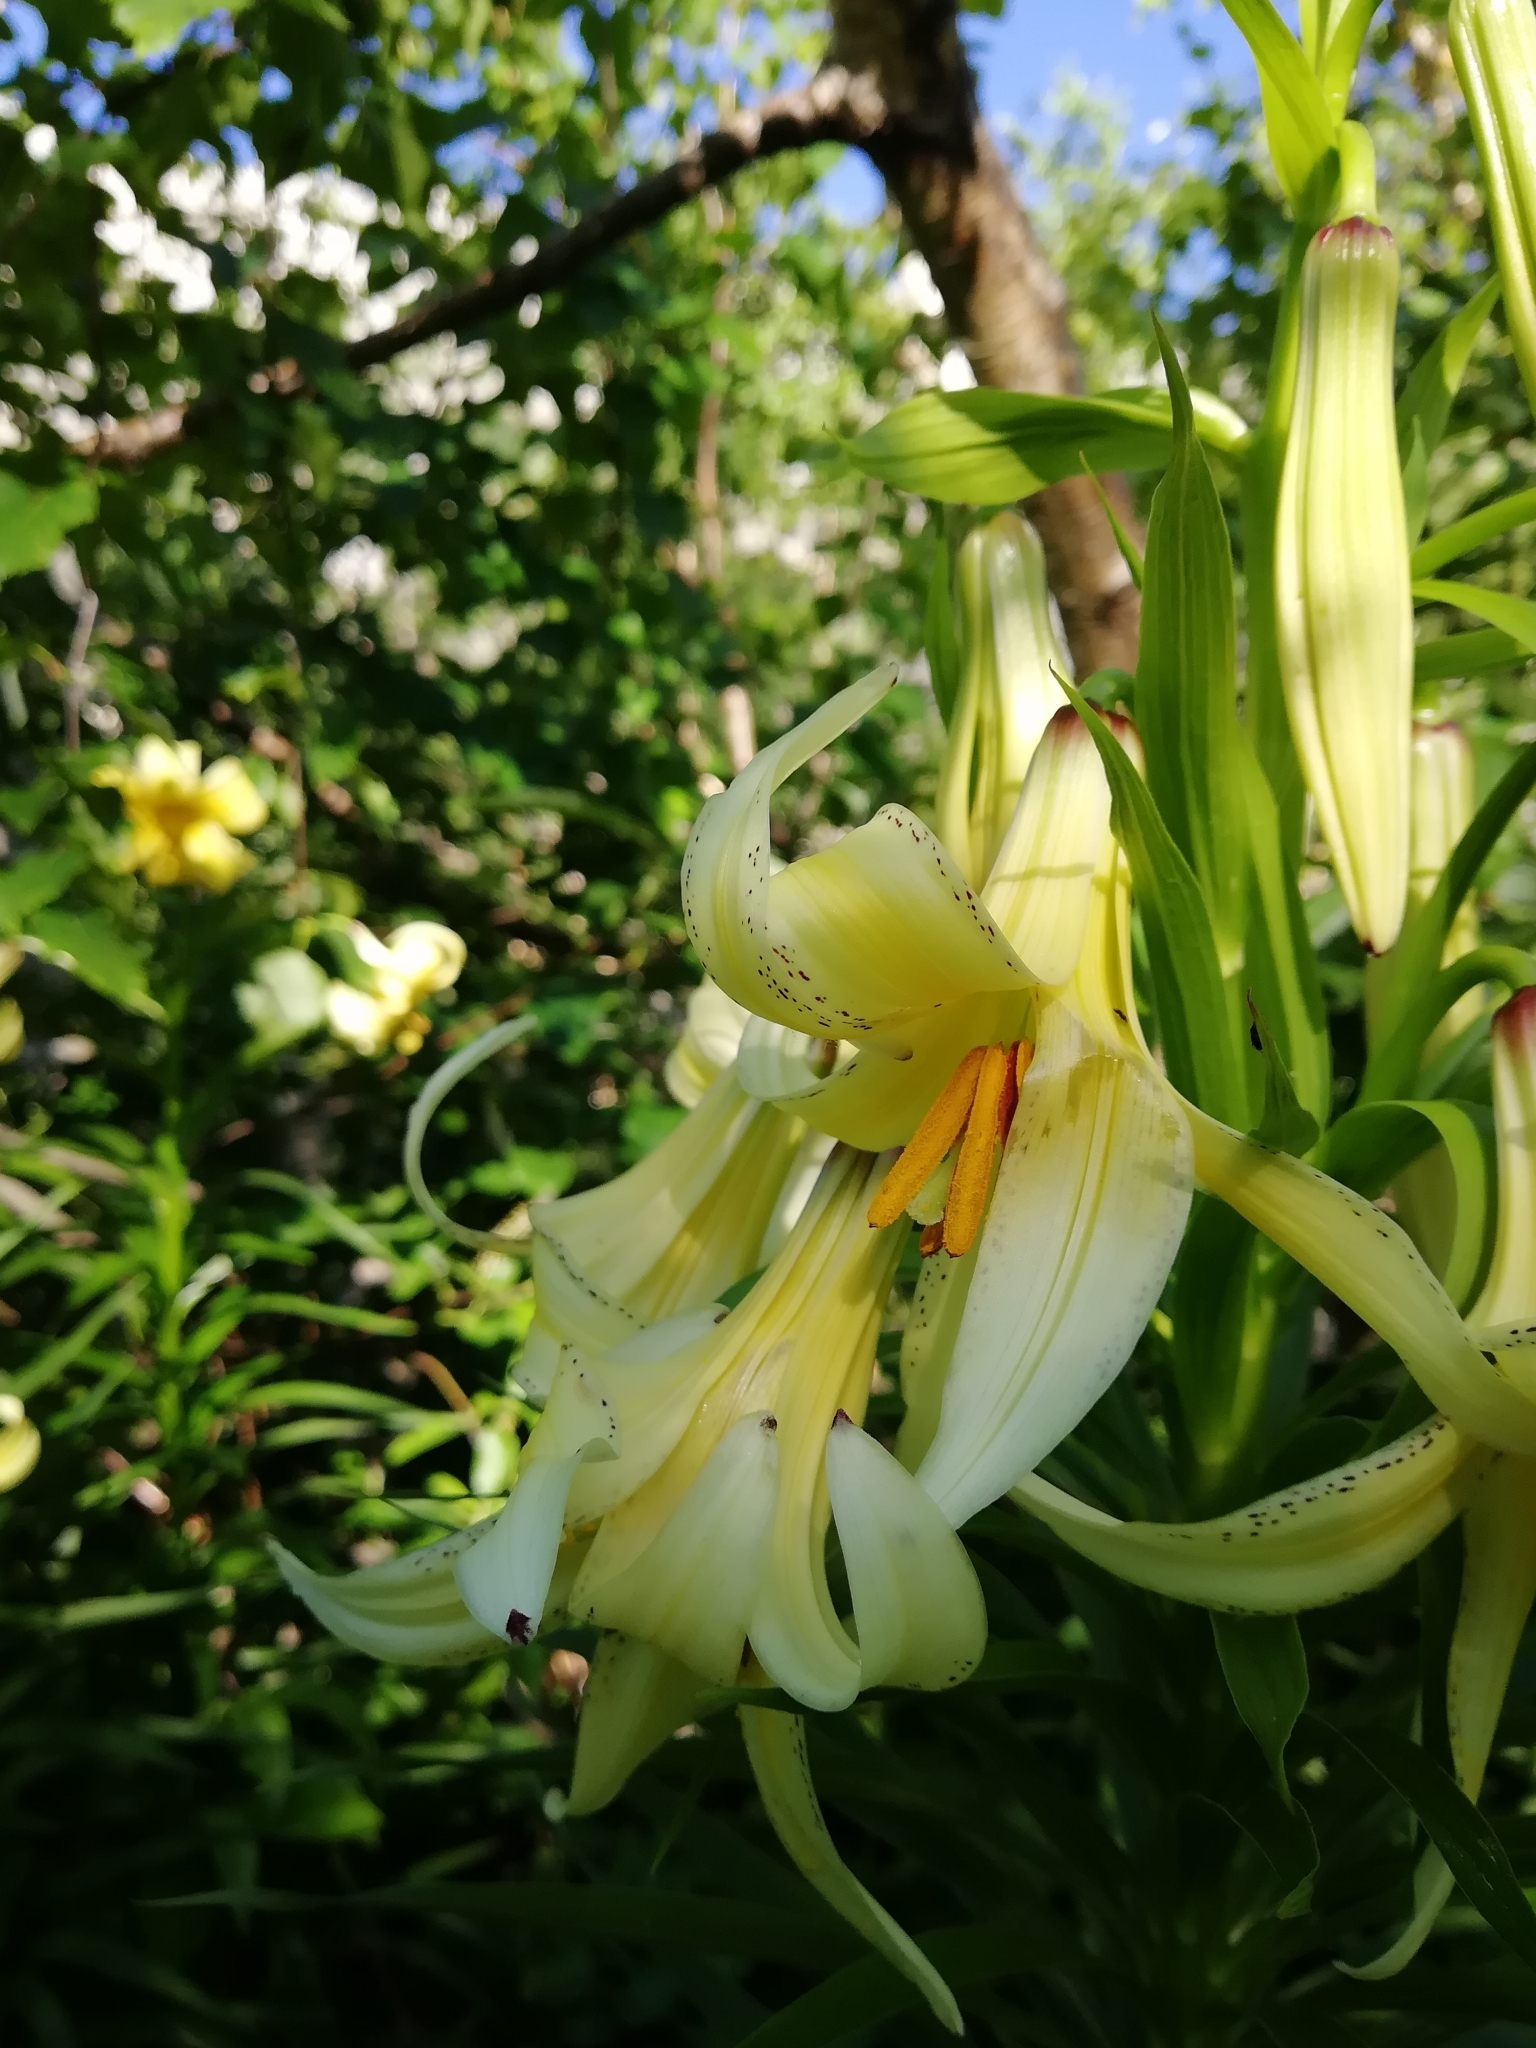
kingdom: Plantae
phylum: Tracheophyta
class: Liliopsida
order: Liliales
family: Liliaceae
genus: Lilium
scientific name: Lilium monadelphum
